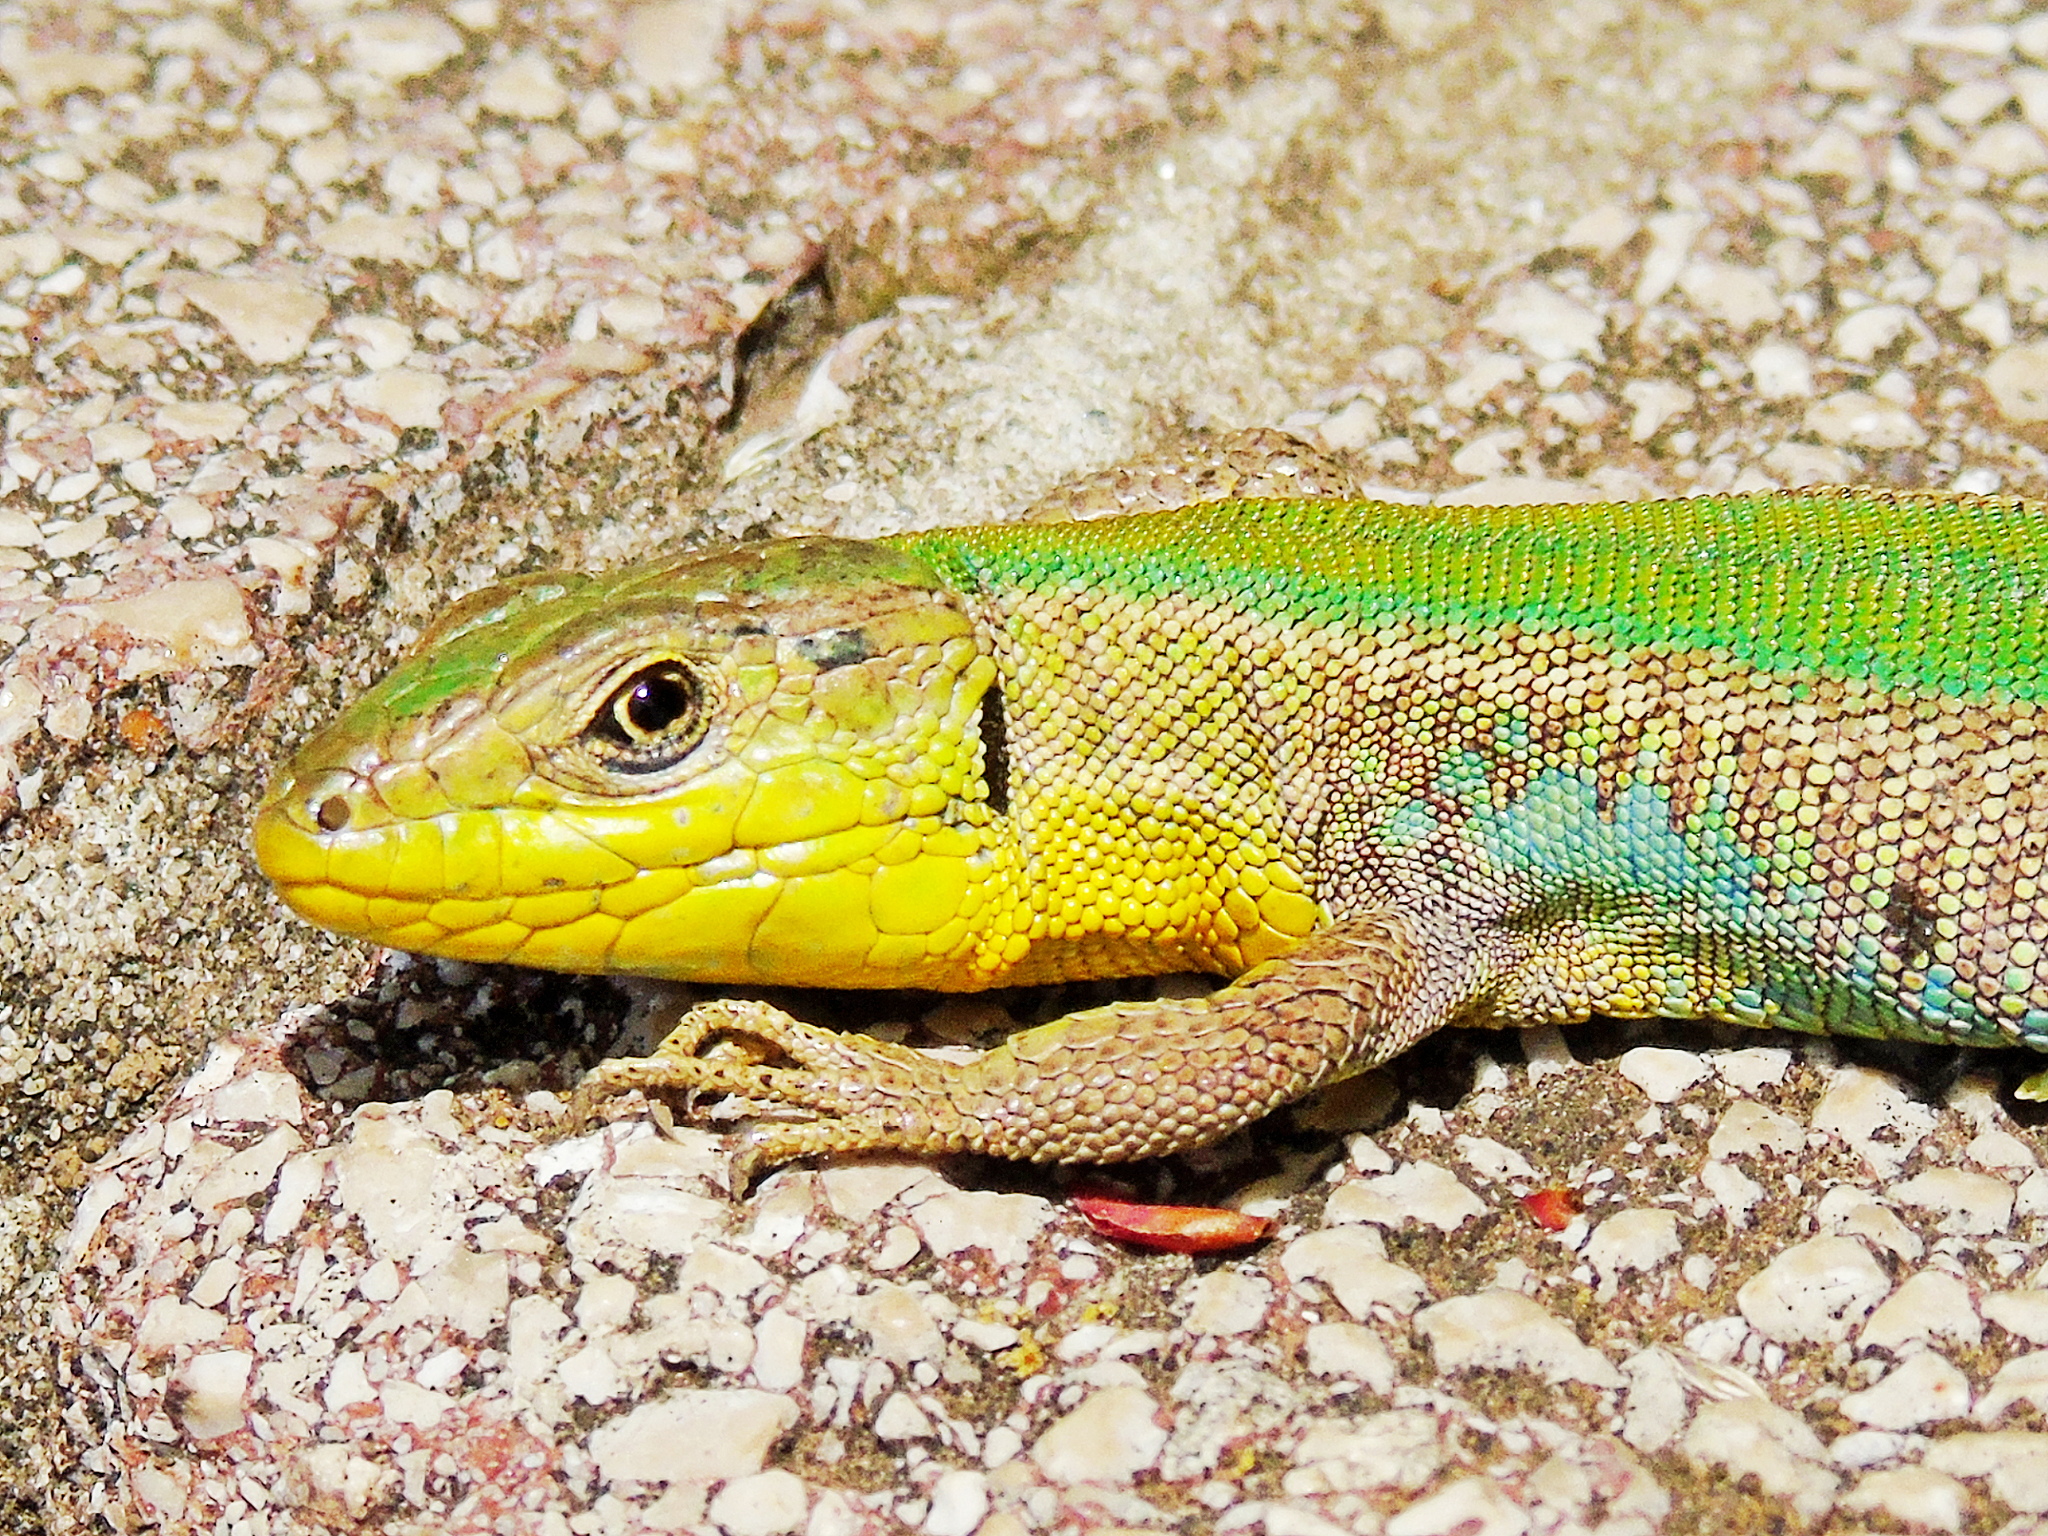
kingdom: Animalia
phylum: Chordata
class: Squamata
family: Lacertidae
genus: Podarcis
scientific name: Podarcis melisellensis
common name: Dalmatian wall lizard
